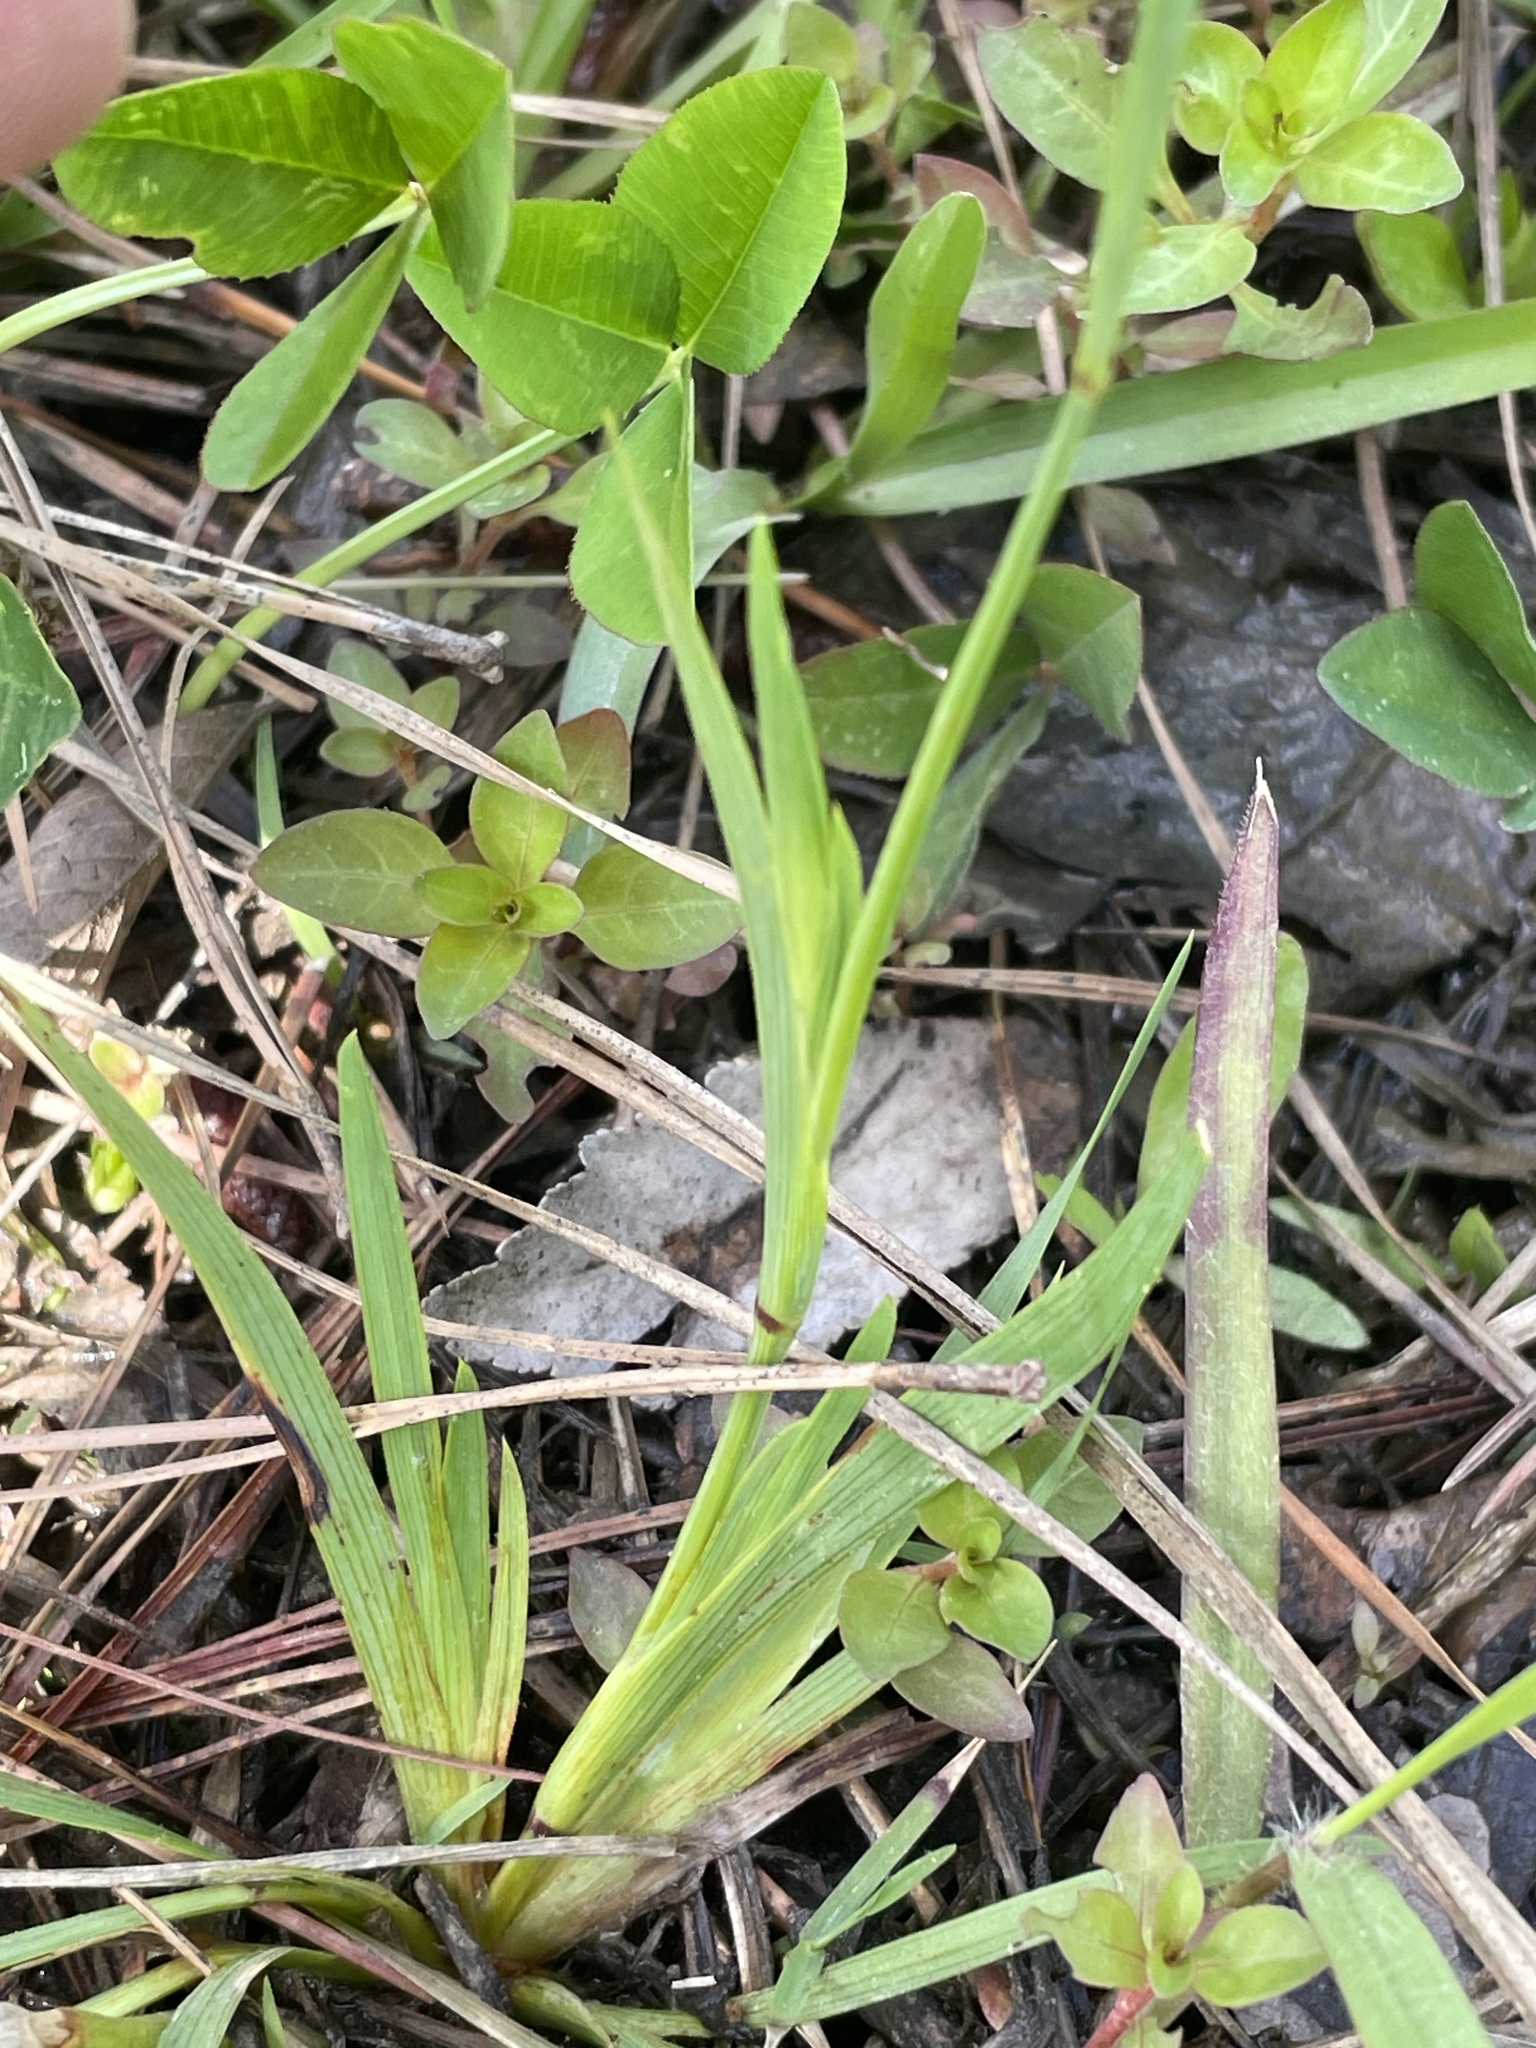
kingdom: Plantae
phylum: Tracheophyta
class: Liliopsida
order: Asparagales
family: Iridaceae
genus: Sisyrinchium
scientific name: Sisyrinchium micranthum
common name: Bermuda pigroot
